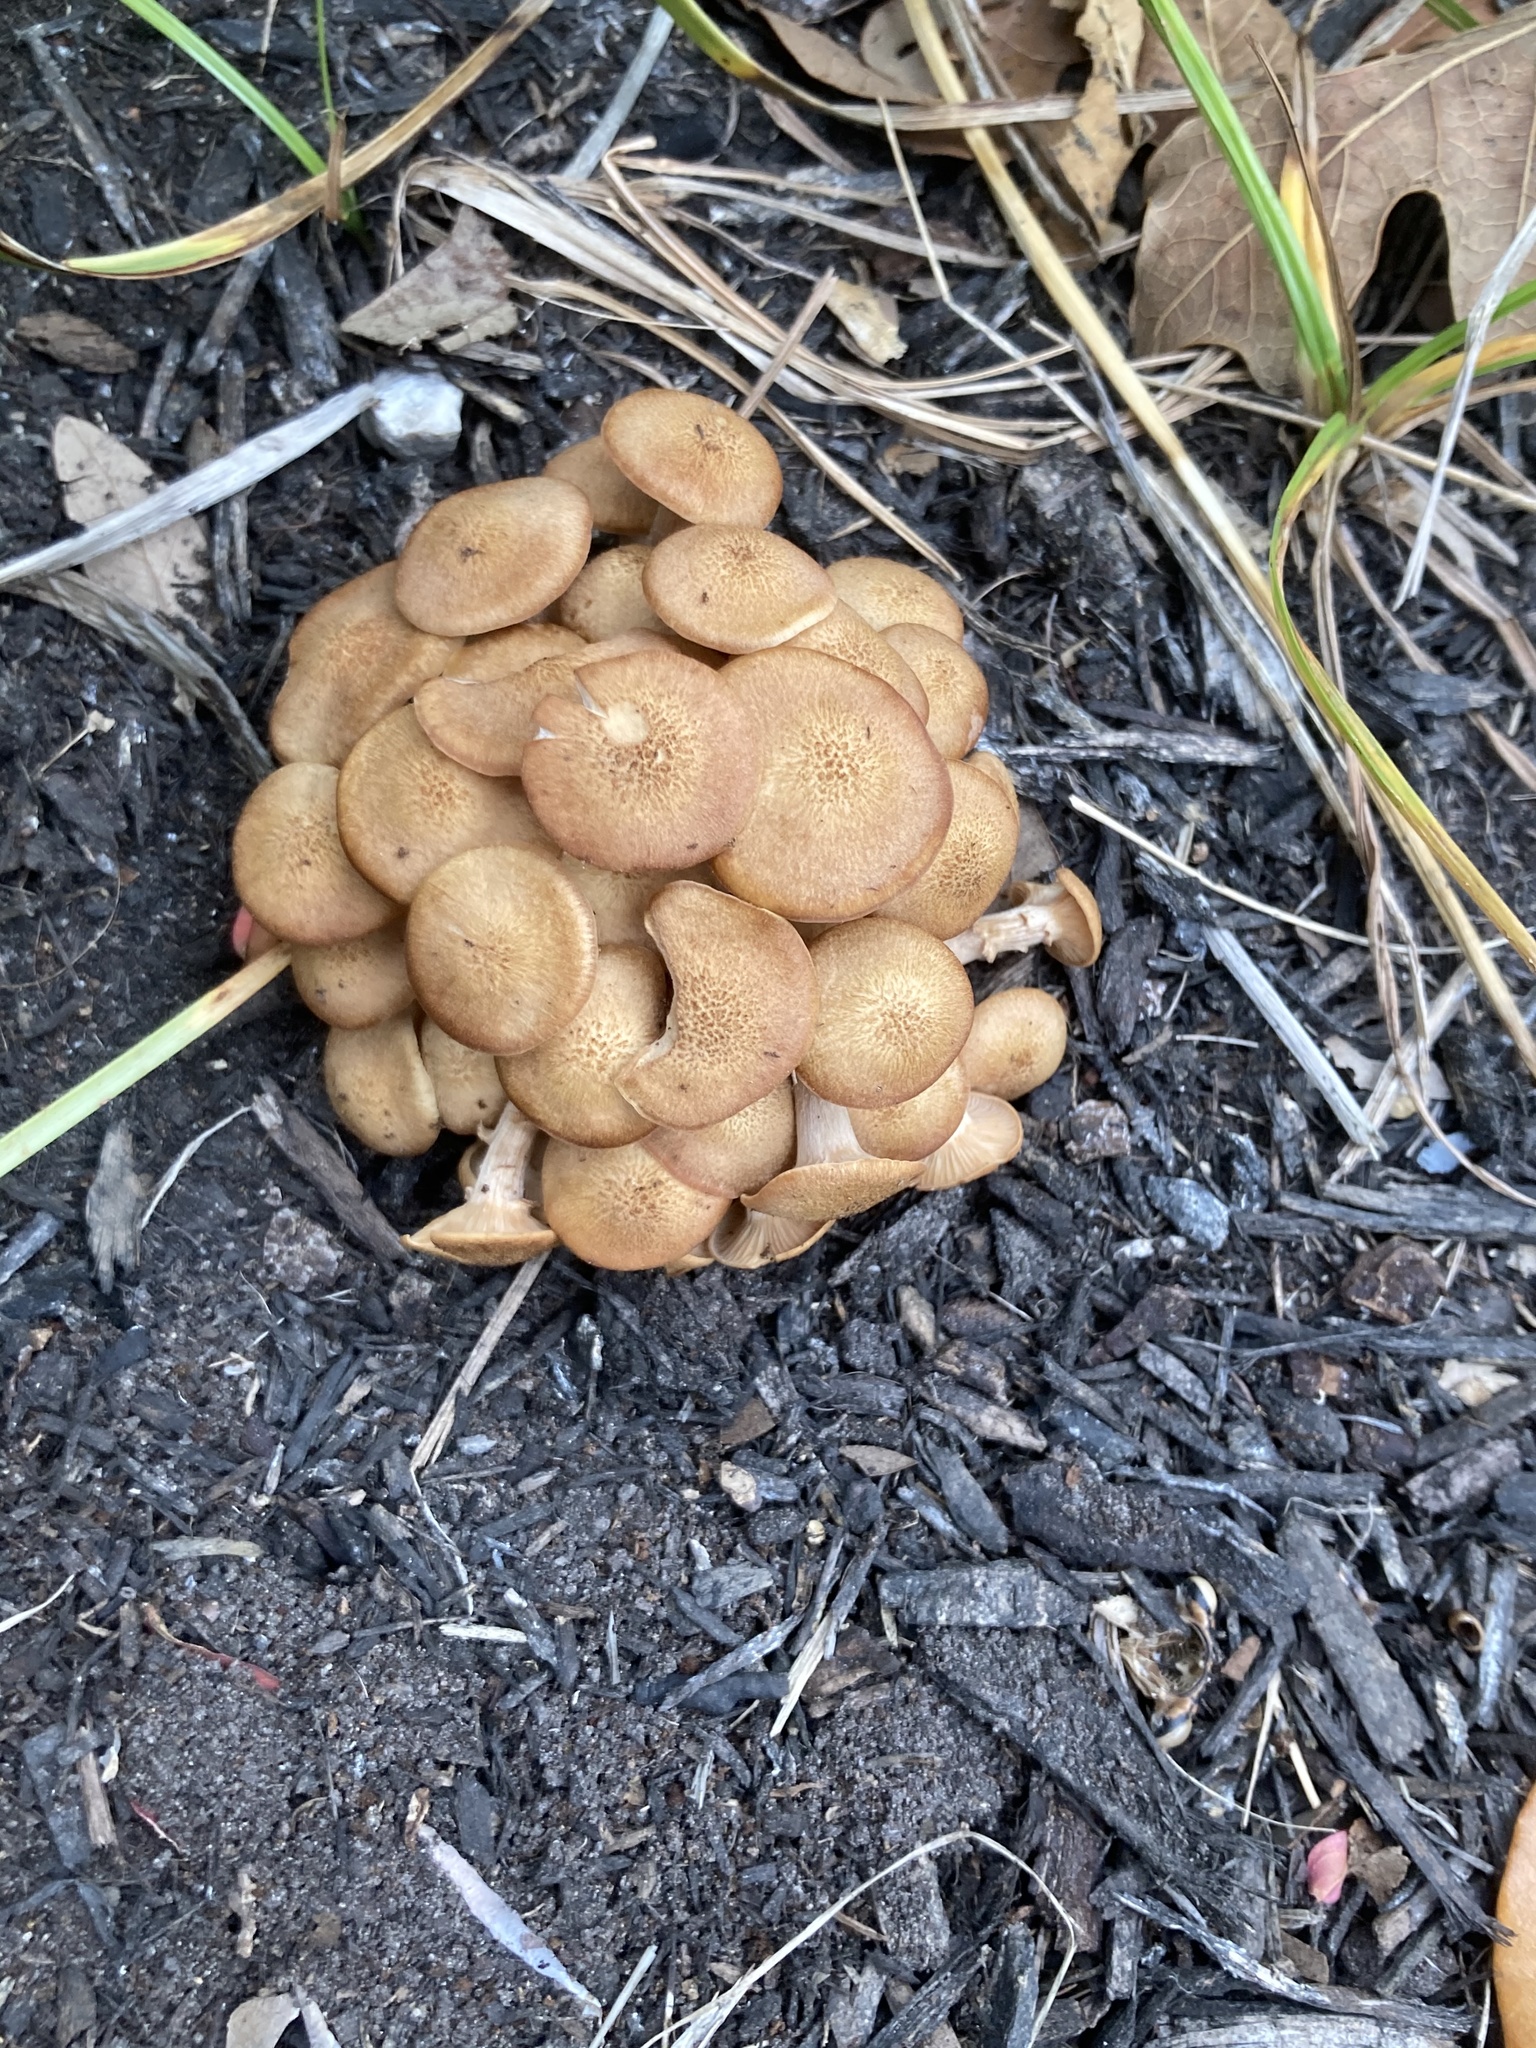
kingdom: Fungi
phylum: Basidiomycota
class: Agaricomycetes
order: Agaricales
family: Physalacriaceae
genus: Desarmillaria
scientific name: Desarmillaria caespitosa
